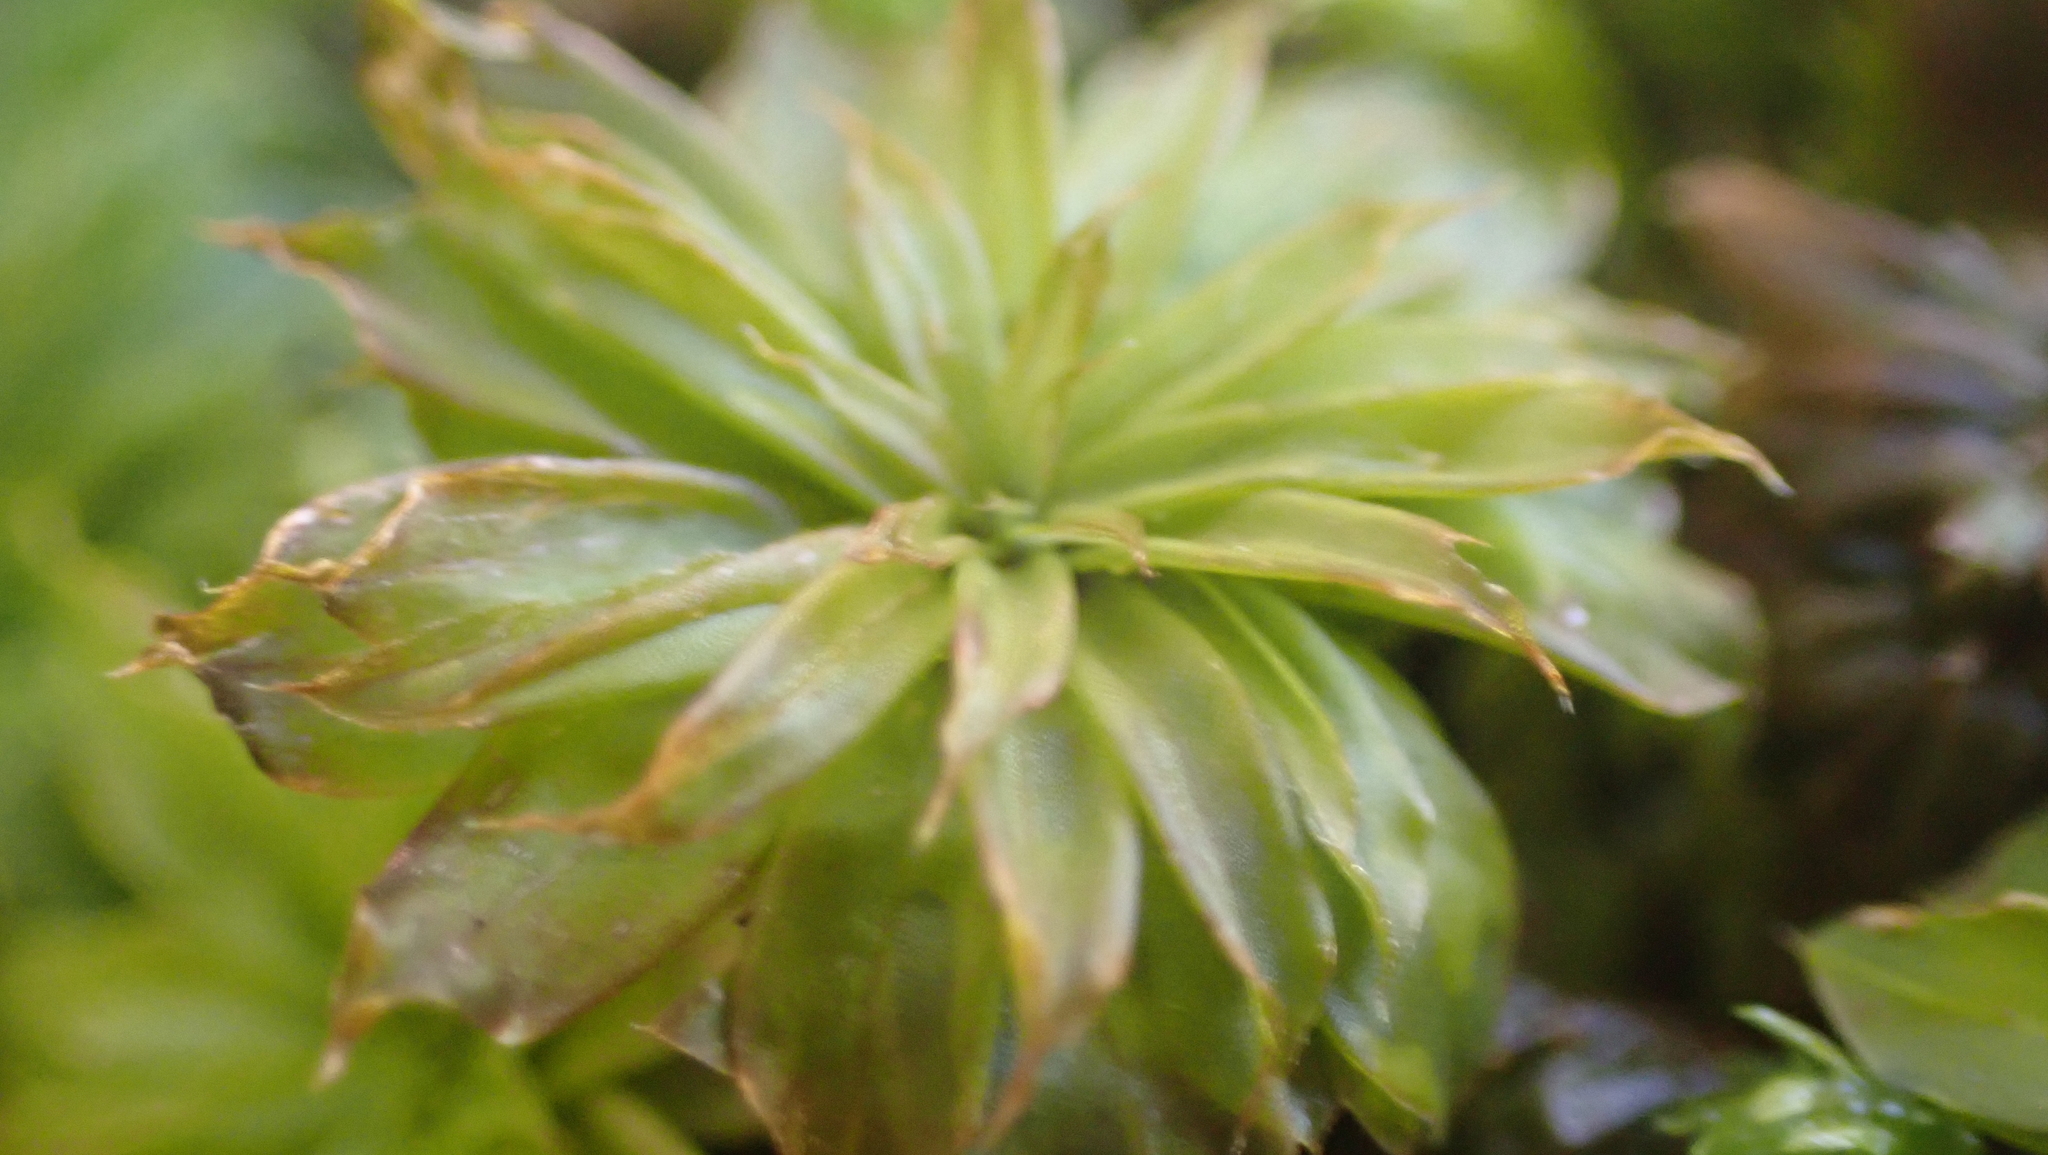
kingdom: Plantae
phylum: Bryophyta
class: Bryopsida
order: Bryales
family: Bryaceae
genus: Rhodobryum
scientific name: Rhodobryum ontariense
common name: Ontario rhodobryum moss
